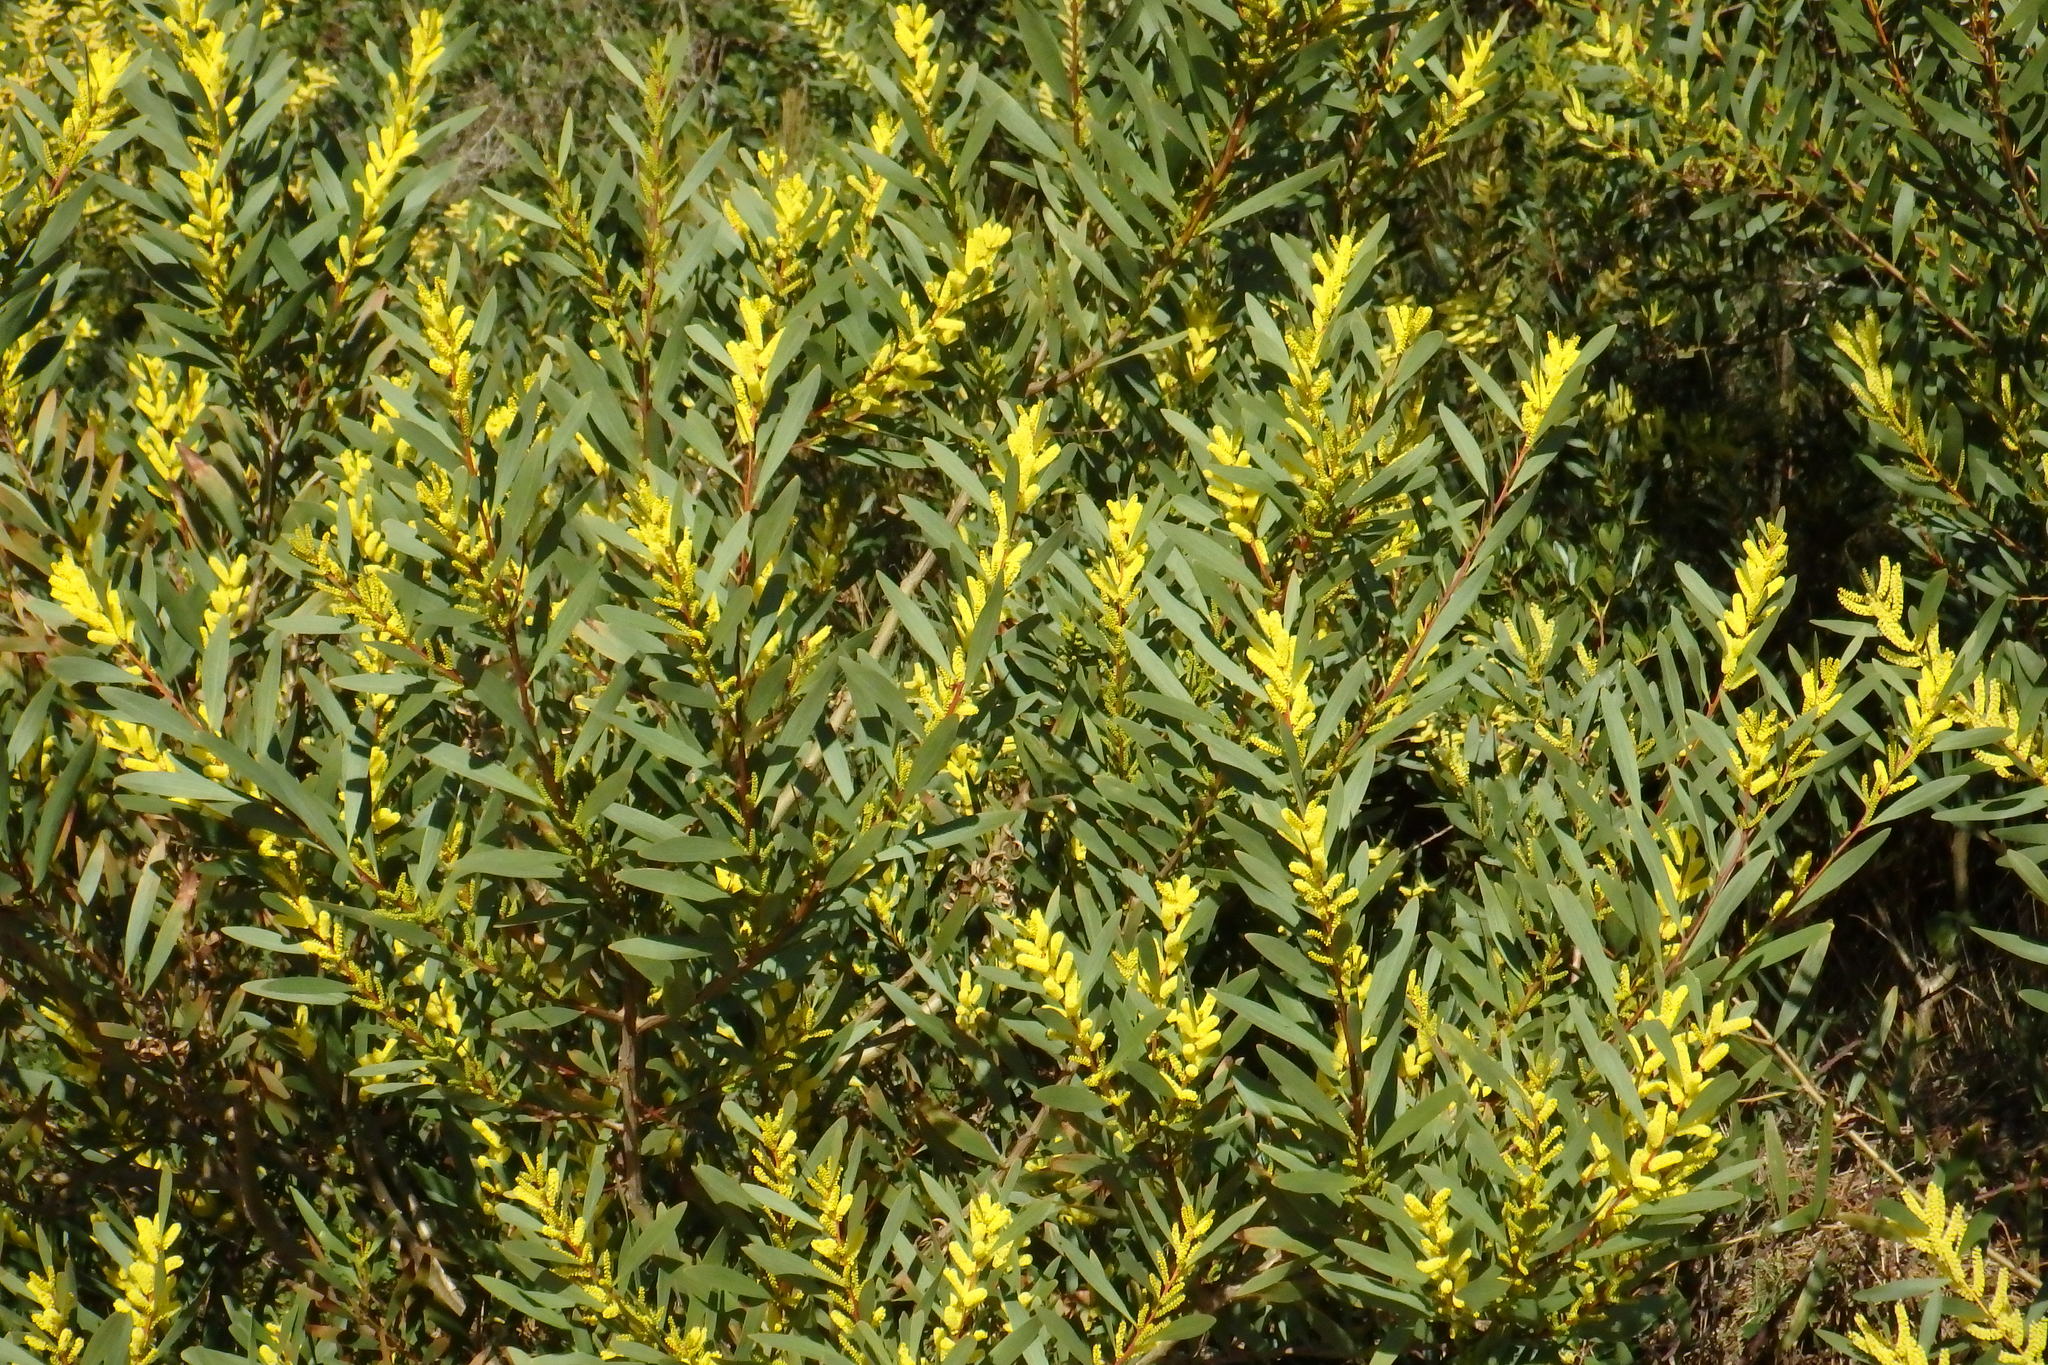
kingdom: Plantae
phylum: Tracheophyta
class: Magnoliopsida
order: Fabales
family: Fabaceae
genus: Acacia
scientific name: Acacia longifolia
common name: Sydney golden wattle
